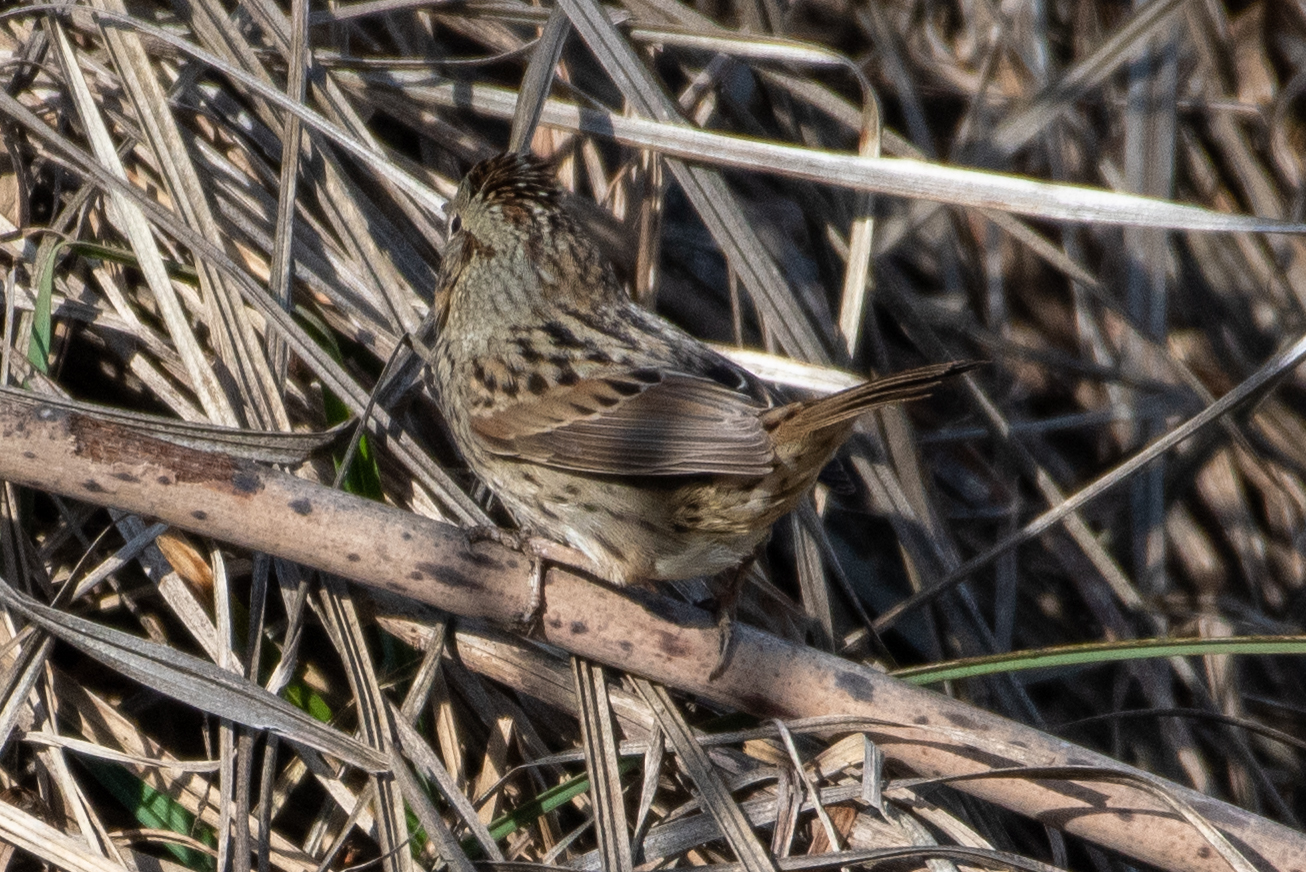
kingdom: Animalia
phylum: Chordata
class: Aves
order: Passeriformes
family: Passerellidae
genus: Melospiza
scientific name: Melospiza lincolnii
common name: Lincoln's sparrow
